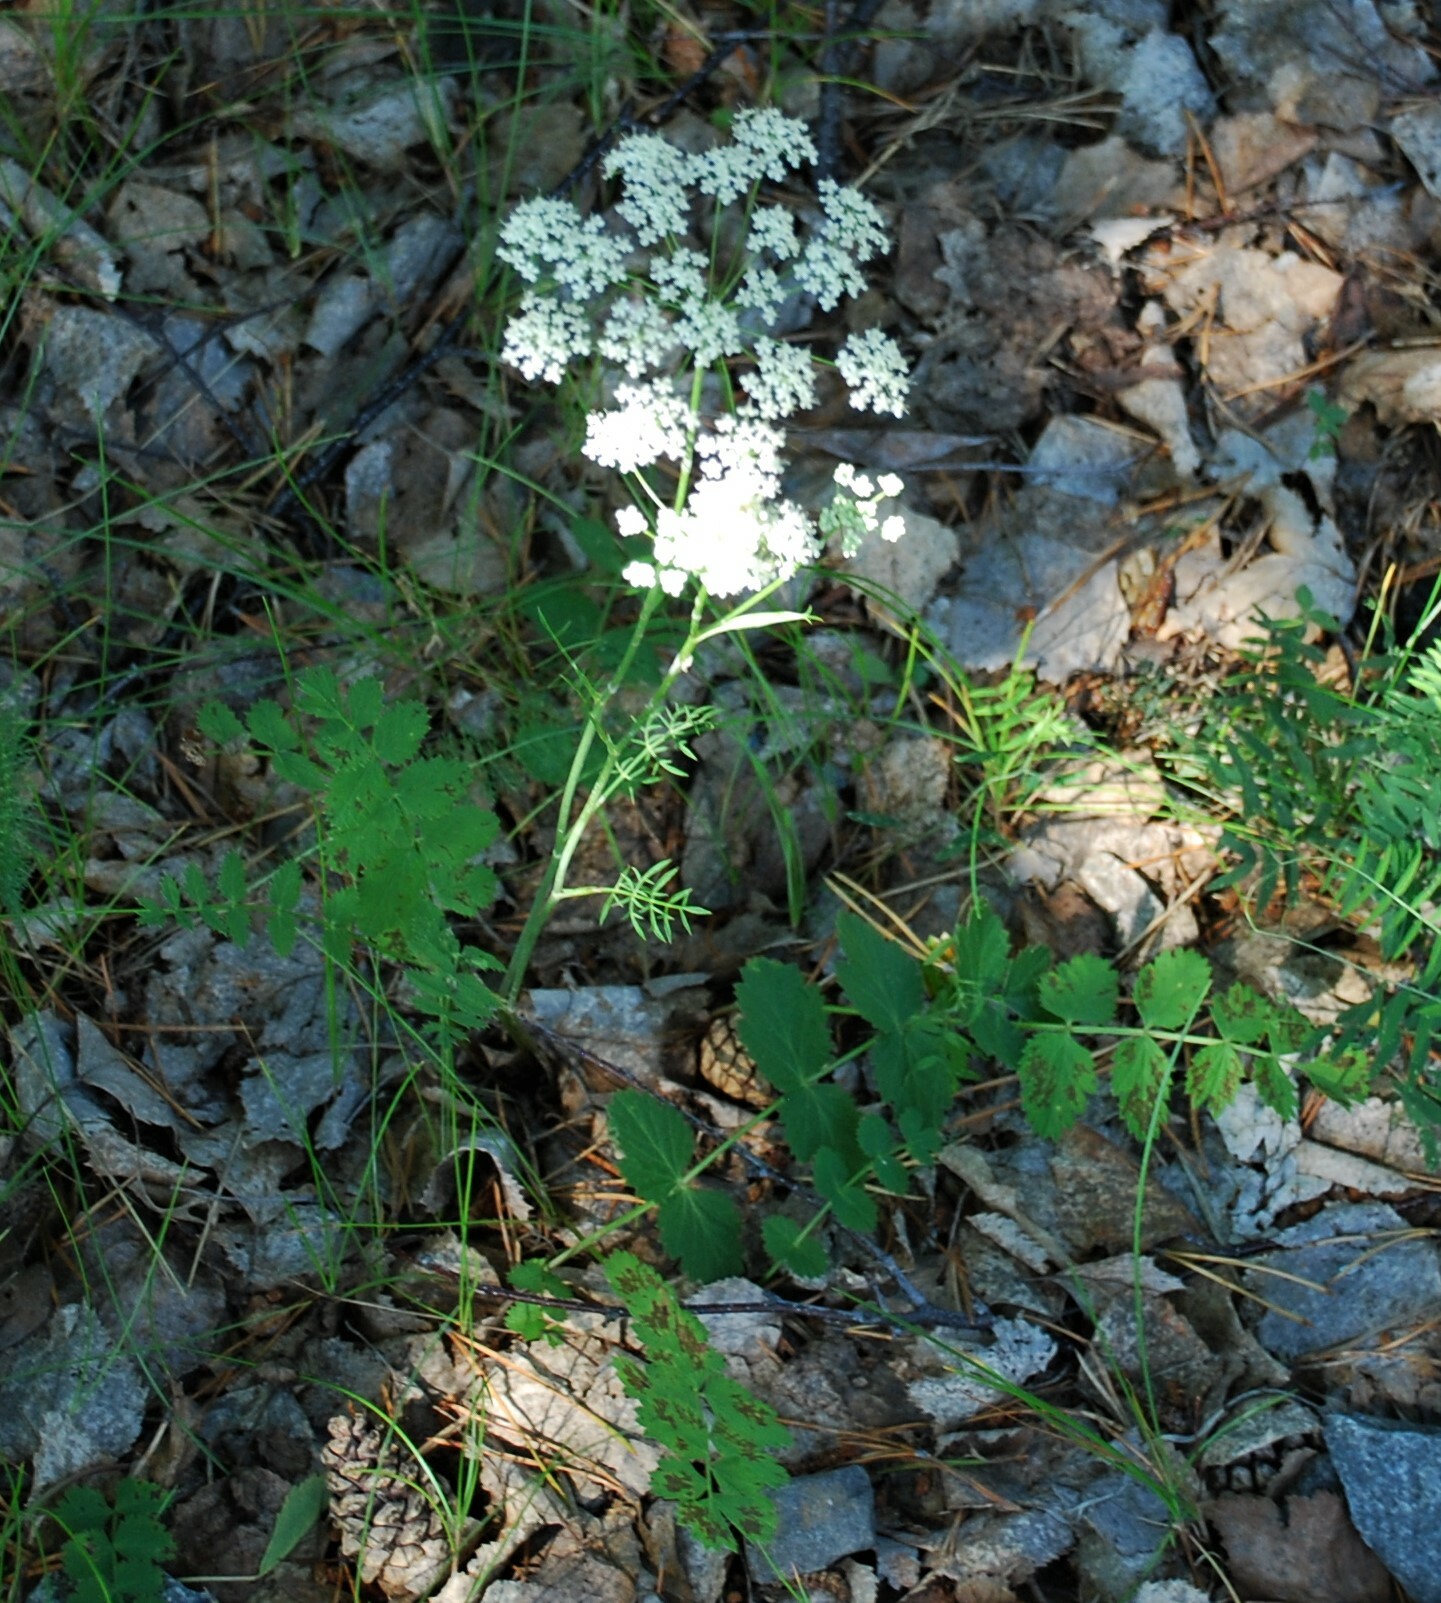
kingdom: Plantae
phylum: Tracheophyta
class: Magnoliopsida
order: Apiales
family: Apiaceae
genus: Pimpinella
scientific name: Pimpinella saxifraga
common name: Burnet-saxifrage
